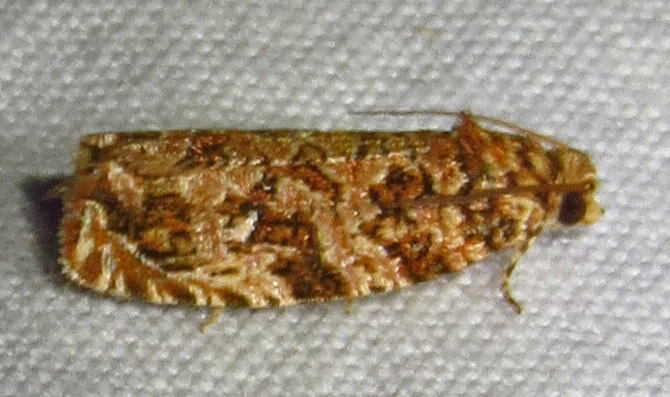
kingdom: Animalia
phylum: Arthropoda
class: Insecta
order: Lepidoptera
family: Tortricidae
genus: Phaecasiophora
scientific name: Phaecasiophora niveiguttana
